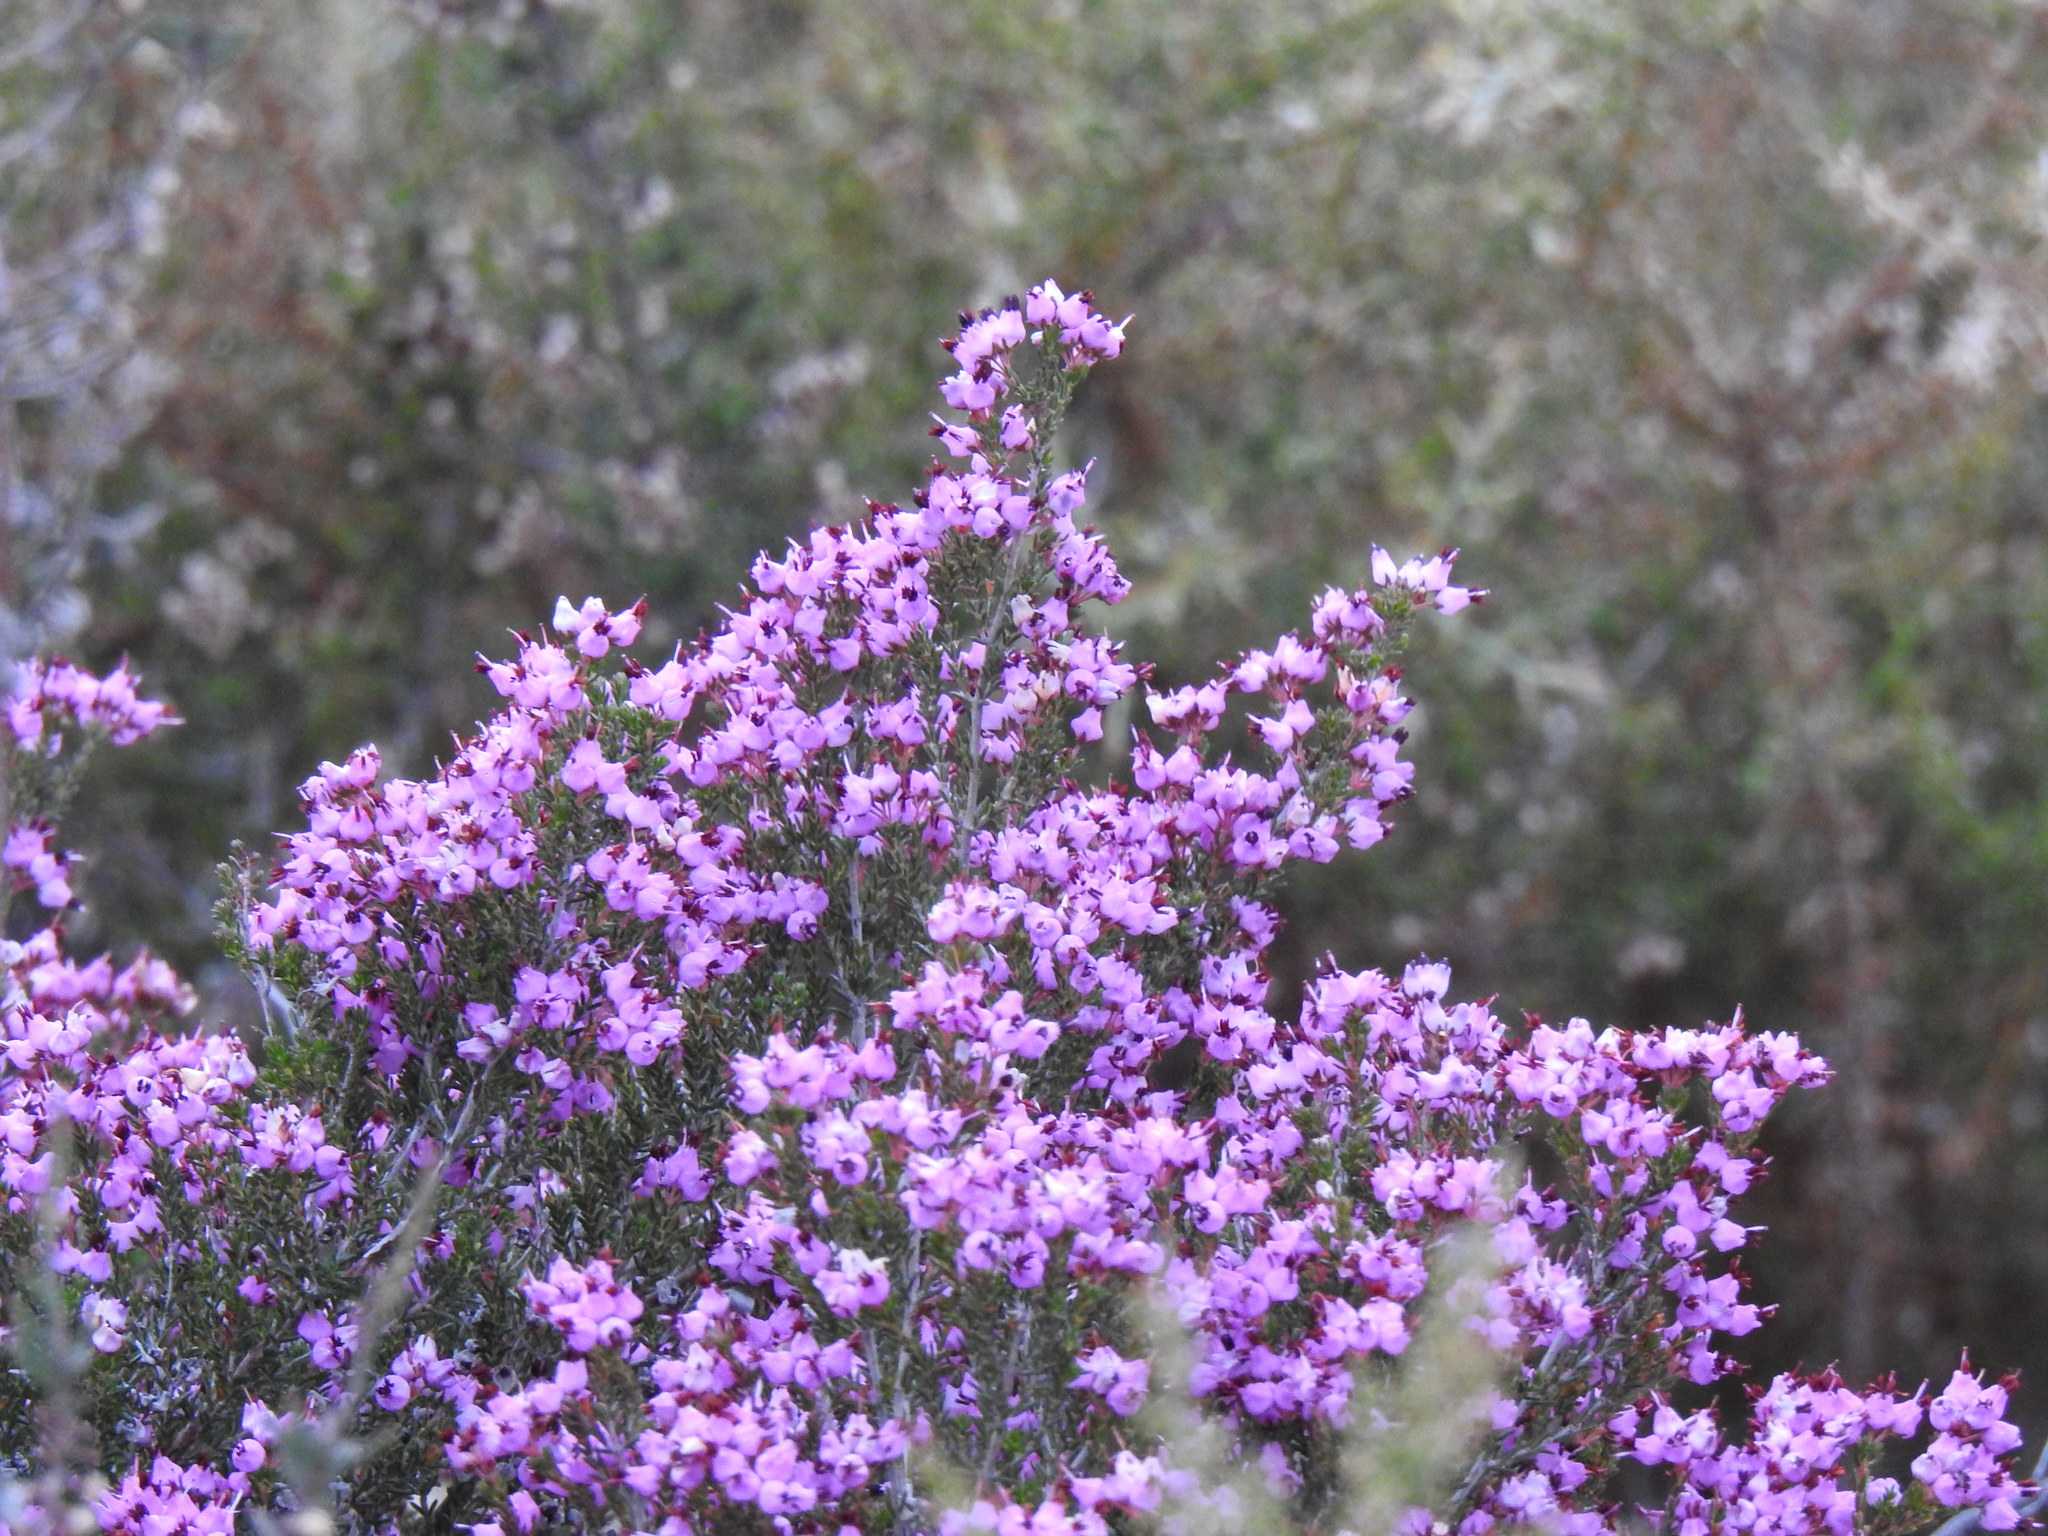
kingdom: Plantae
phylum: Tracheophyta
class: Magnoliopsida
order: Ericales
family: Ericaceae
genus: Erica
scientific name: Erica umbellata
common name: Dwarf spanish heath
